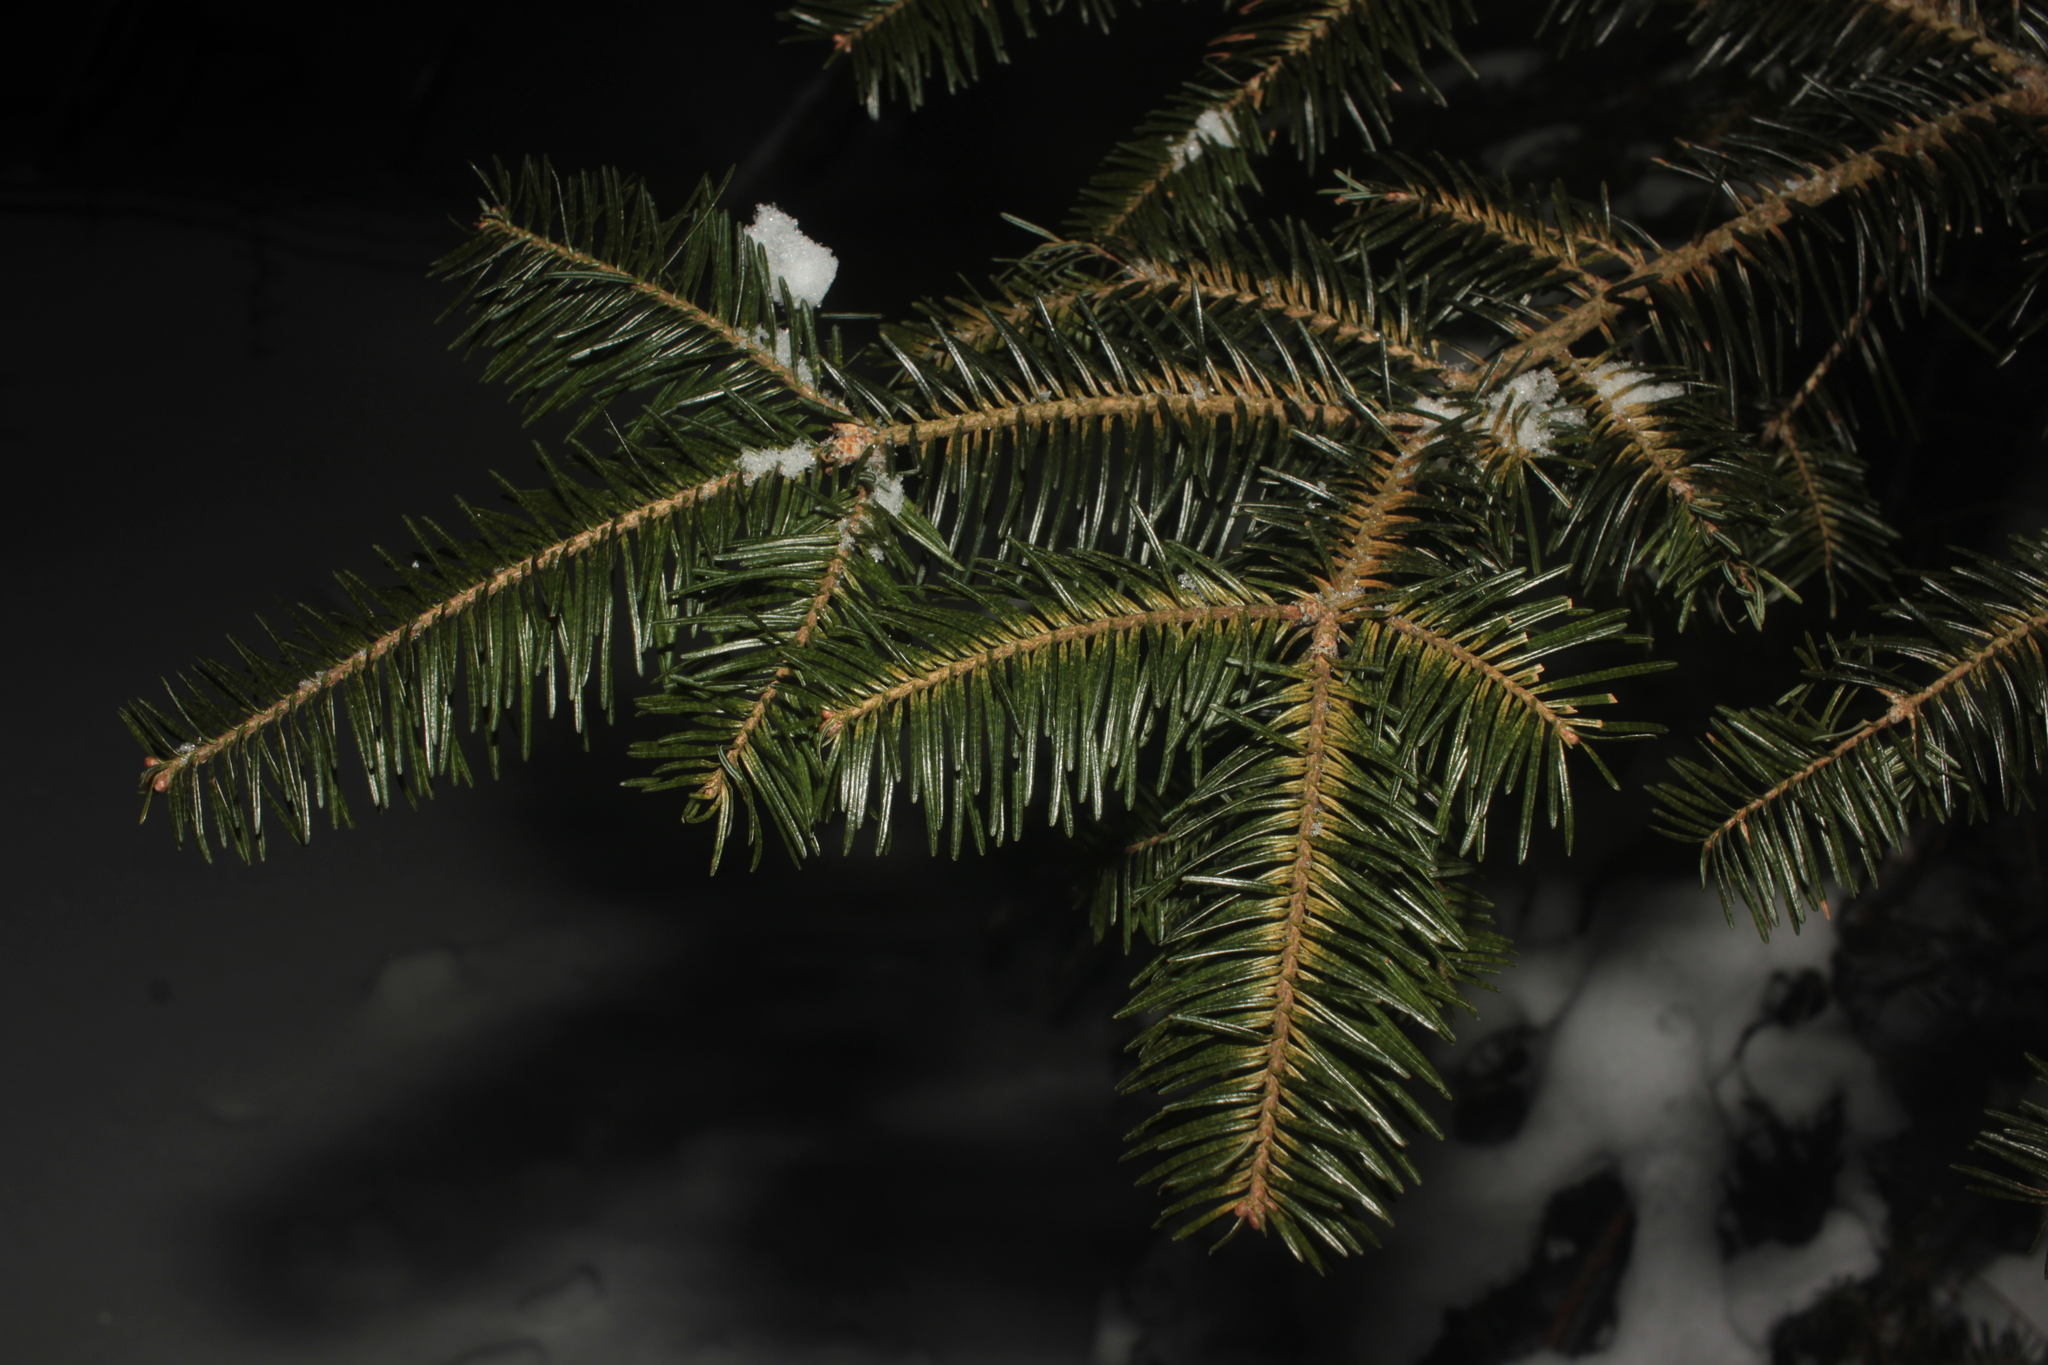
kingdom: Plantae
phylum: Tracheophyta
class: Pinopsida
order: Pinales
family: Pinaceae
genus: Abies
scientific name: Abies balsamea
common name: Balsam fir
